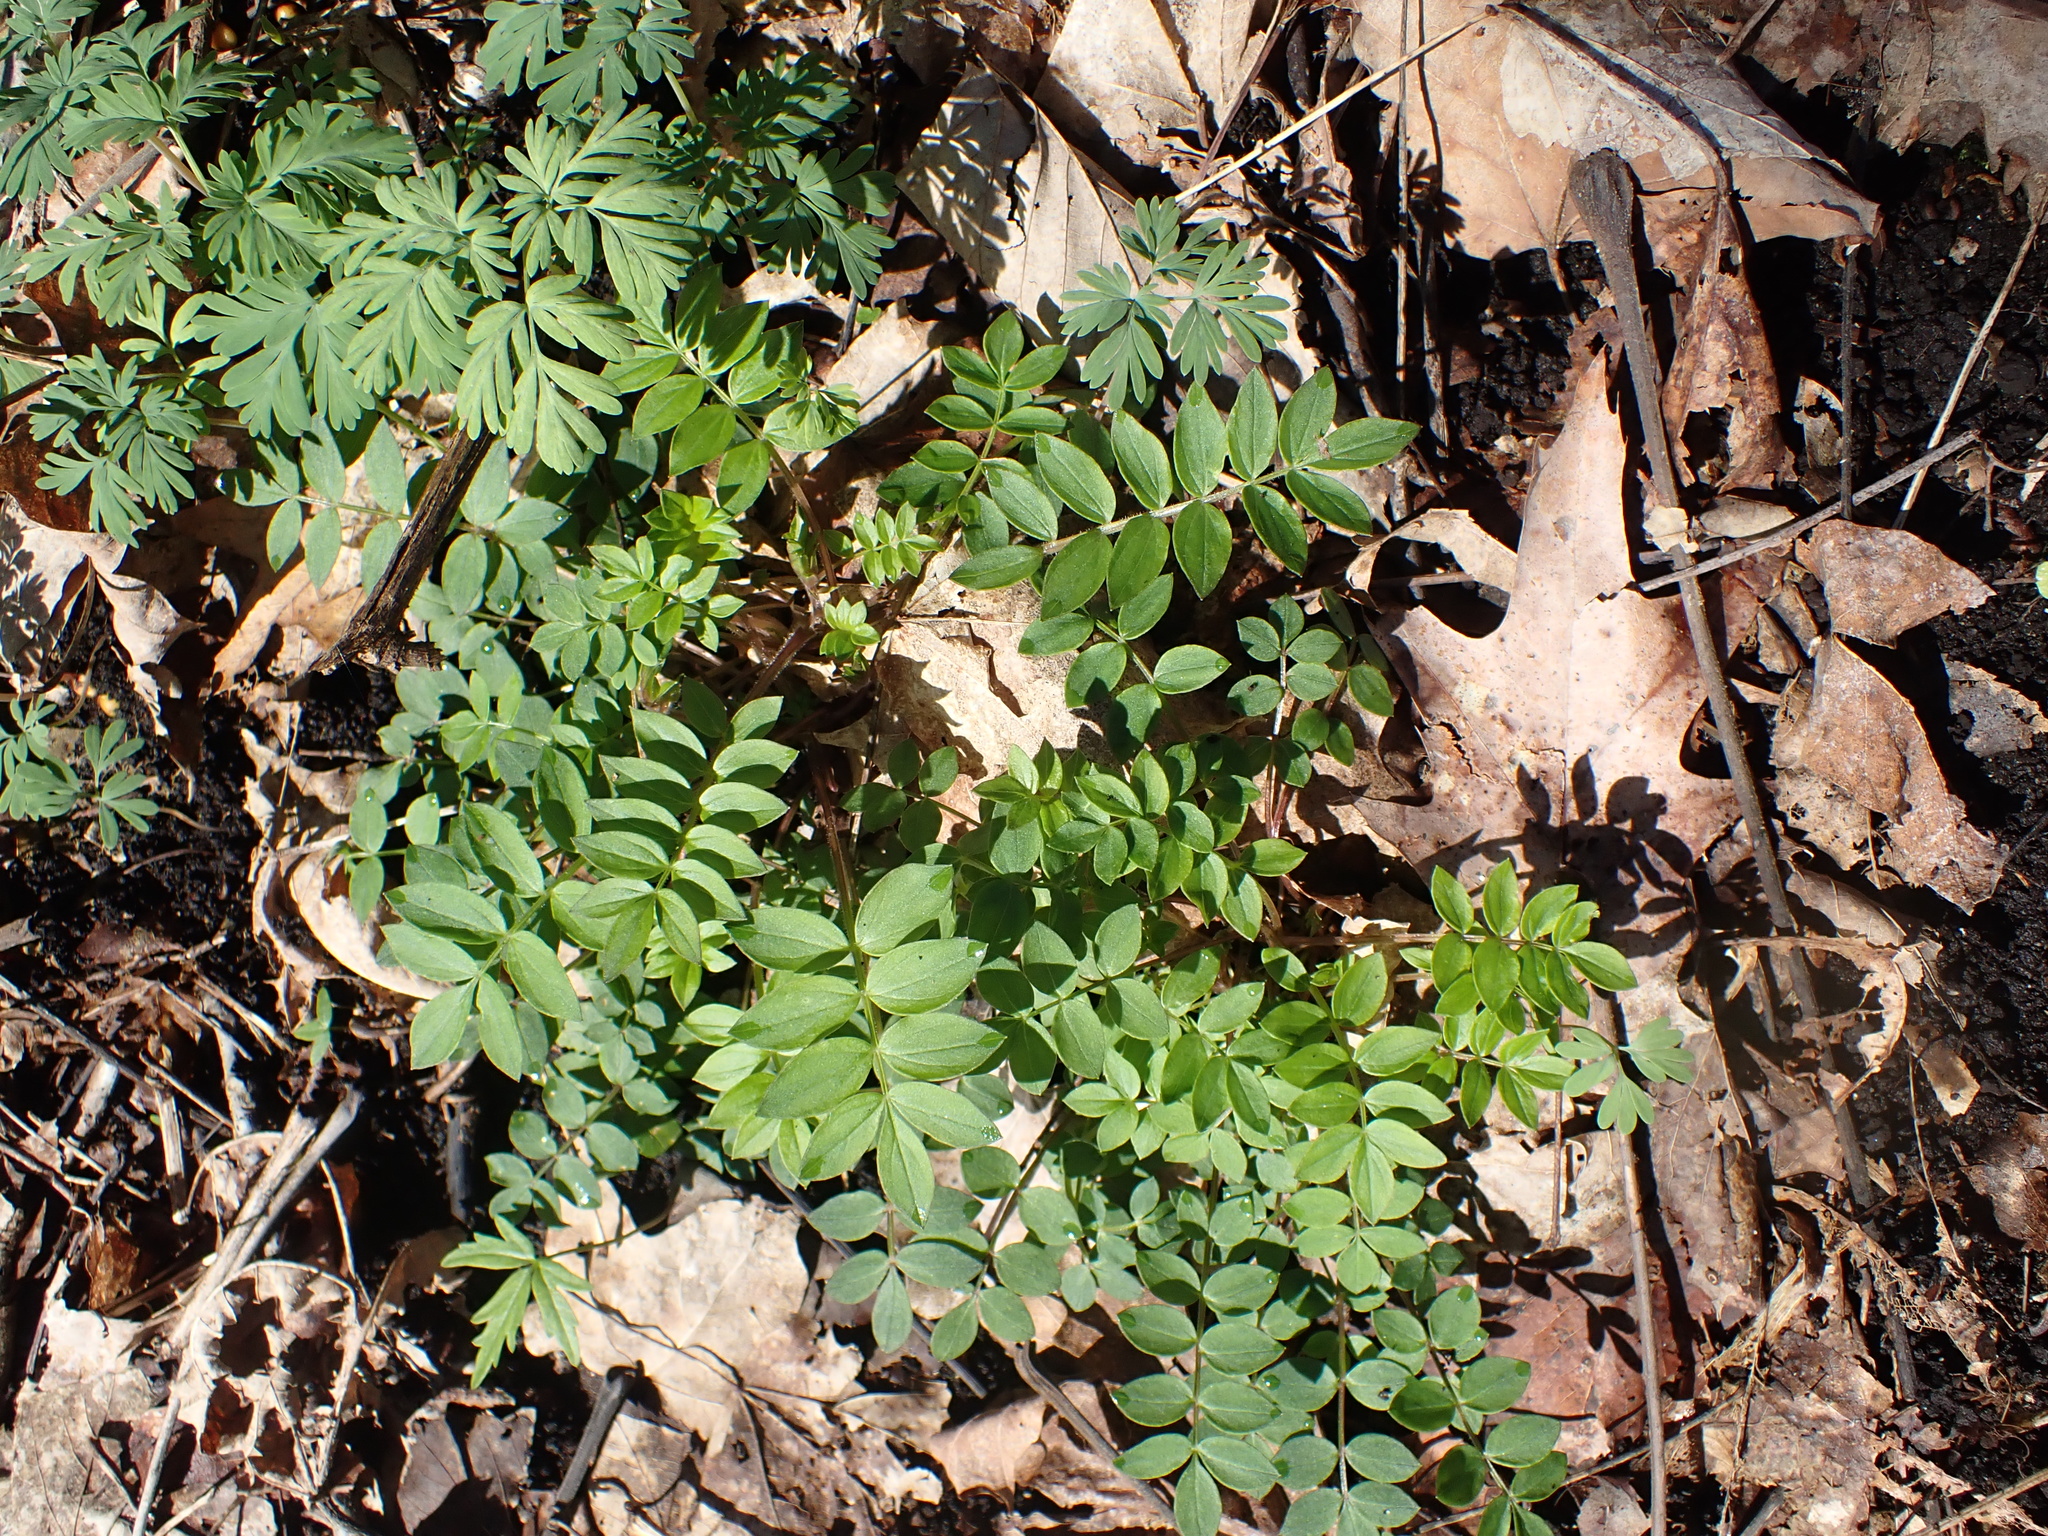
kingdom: Plantae
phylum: Tracheophyta
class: Magnoliopsida
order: Ericales
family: Polemoniaceae
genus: Polemonium
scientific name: Polemonium reptans
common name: Creeping jacob's-ladder
